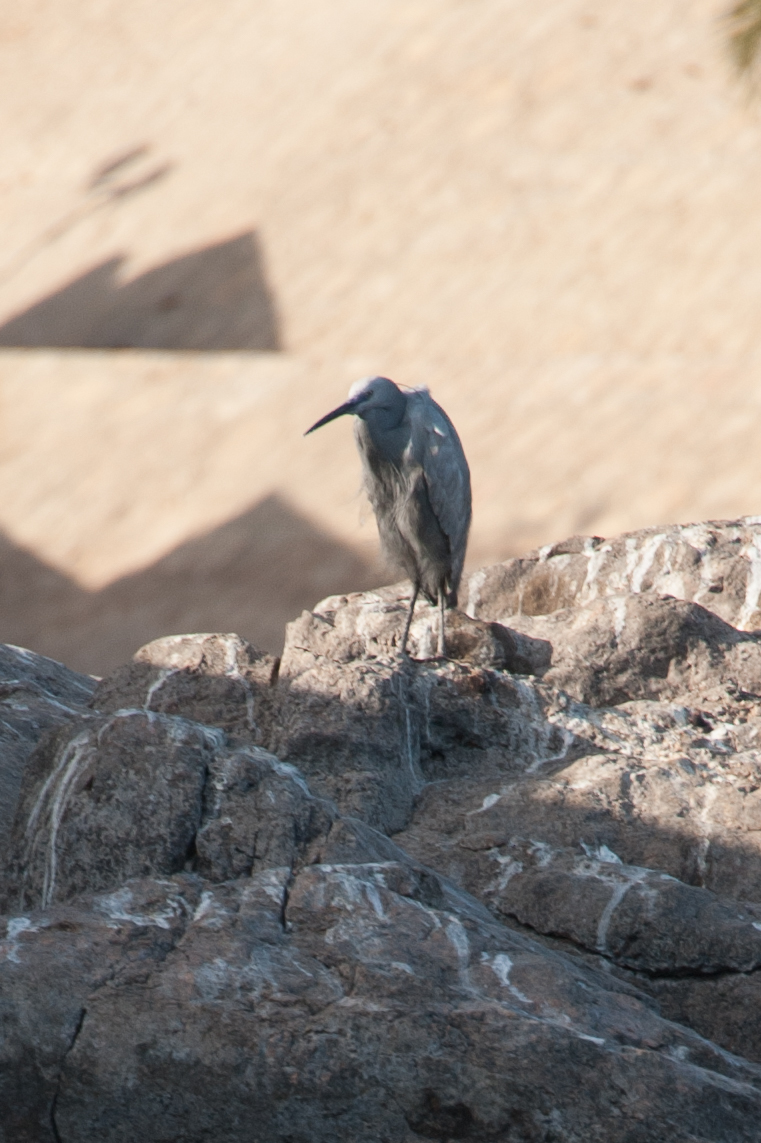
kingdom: Animalia
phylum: Chordata
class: Aves
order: Pelecaniformes
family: Ardeidae
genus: Egretta
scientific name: Egretta gularis
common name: Western reef-heron
